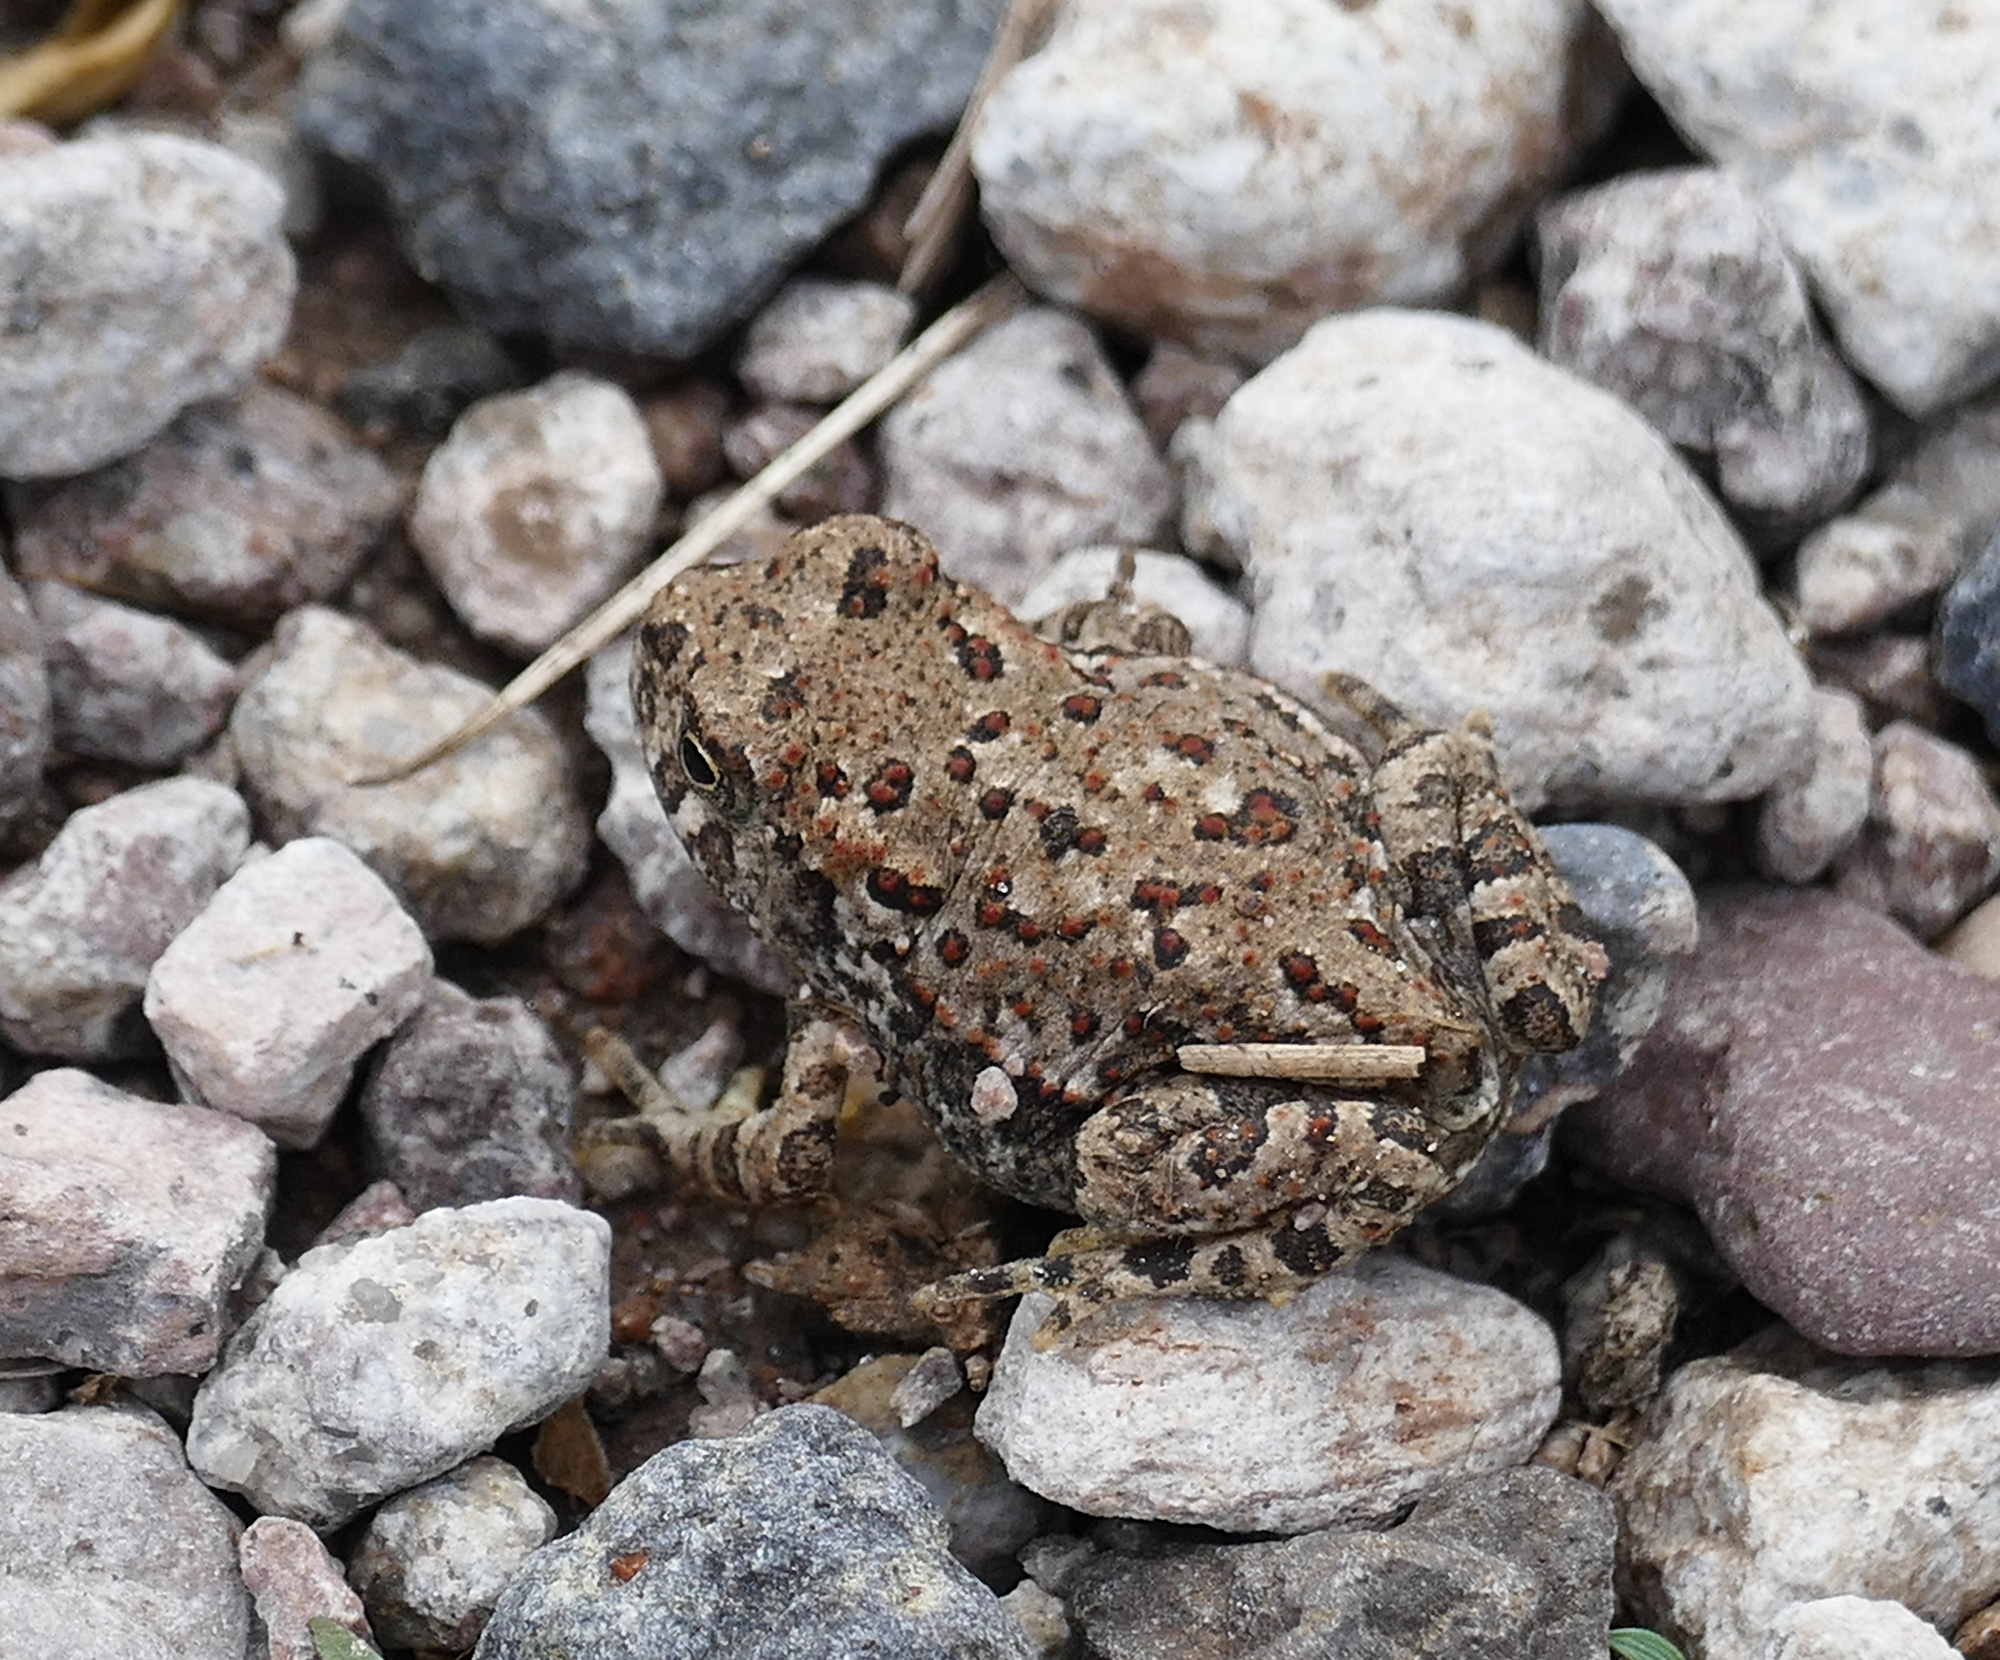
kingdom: Animalia
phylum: Chordata
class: Amphibia
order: Anura
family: Bufonidae
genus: Anaxyrus
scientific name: Anaxyrus microscaphus
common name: Arizona toad
